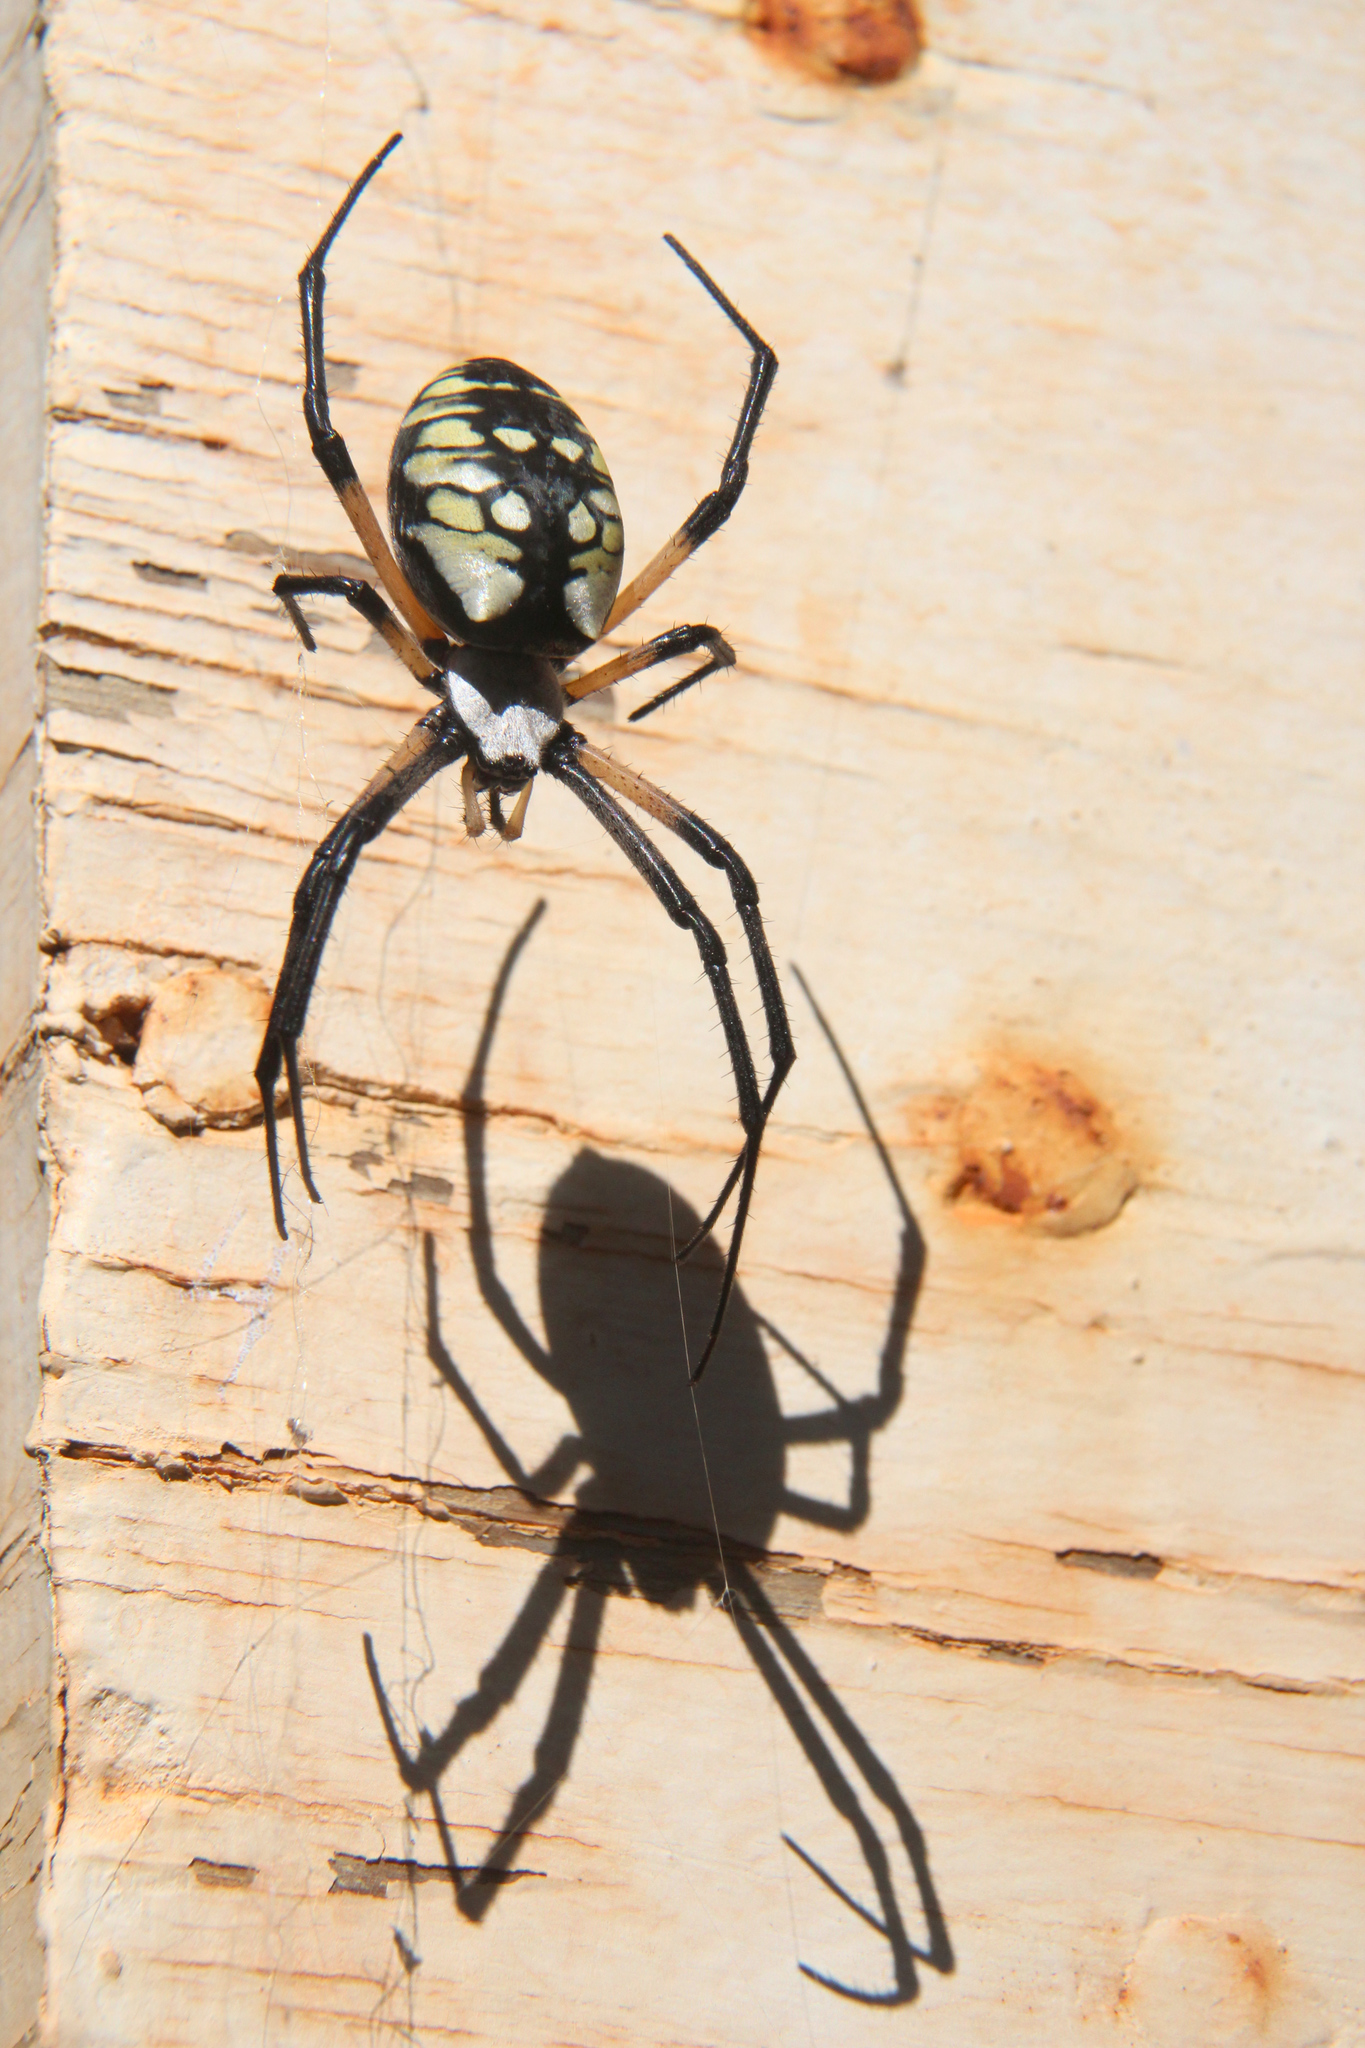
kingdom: Animalia
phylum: Arthropoda
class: Arachnida
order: Araneae
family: Araneidae
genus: Argiope
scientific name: Argiope aurantia
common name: Orb weavers
